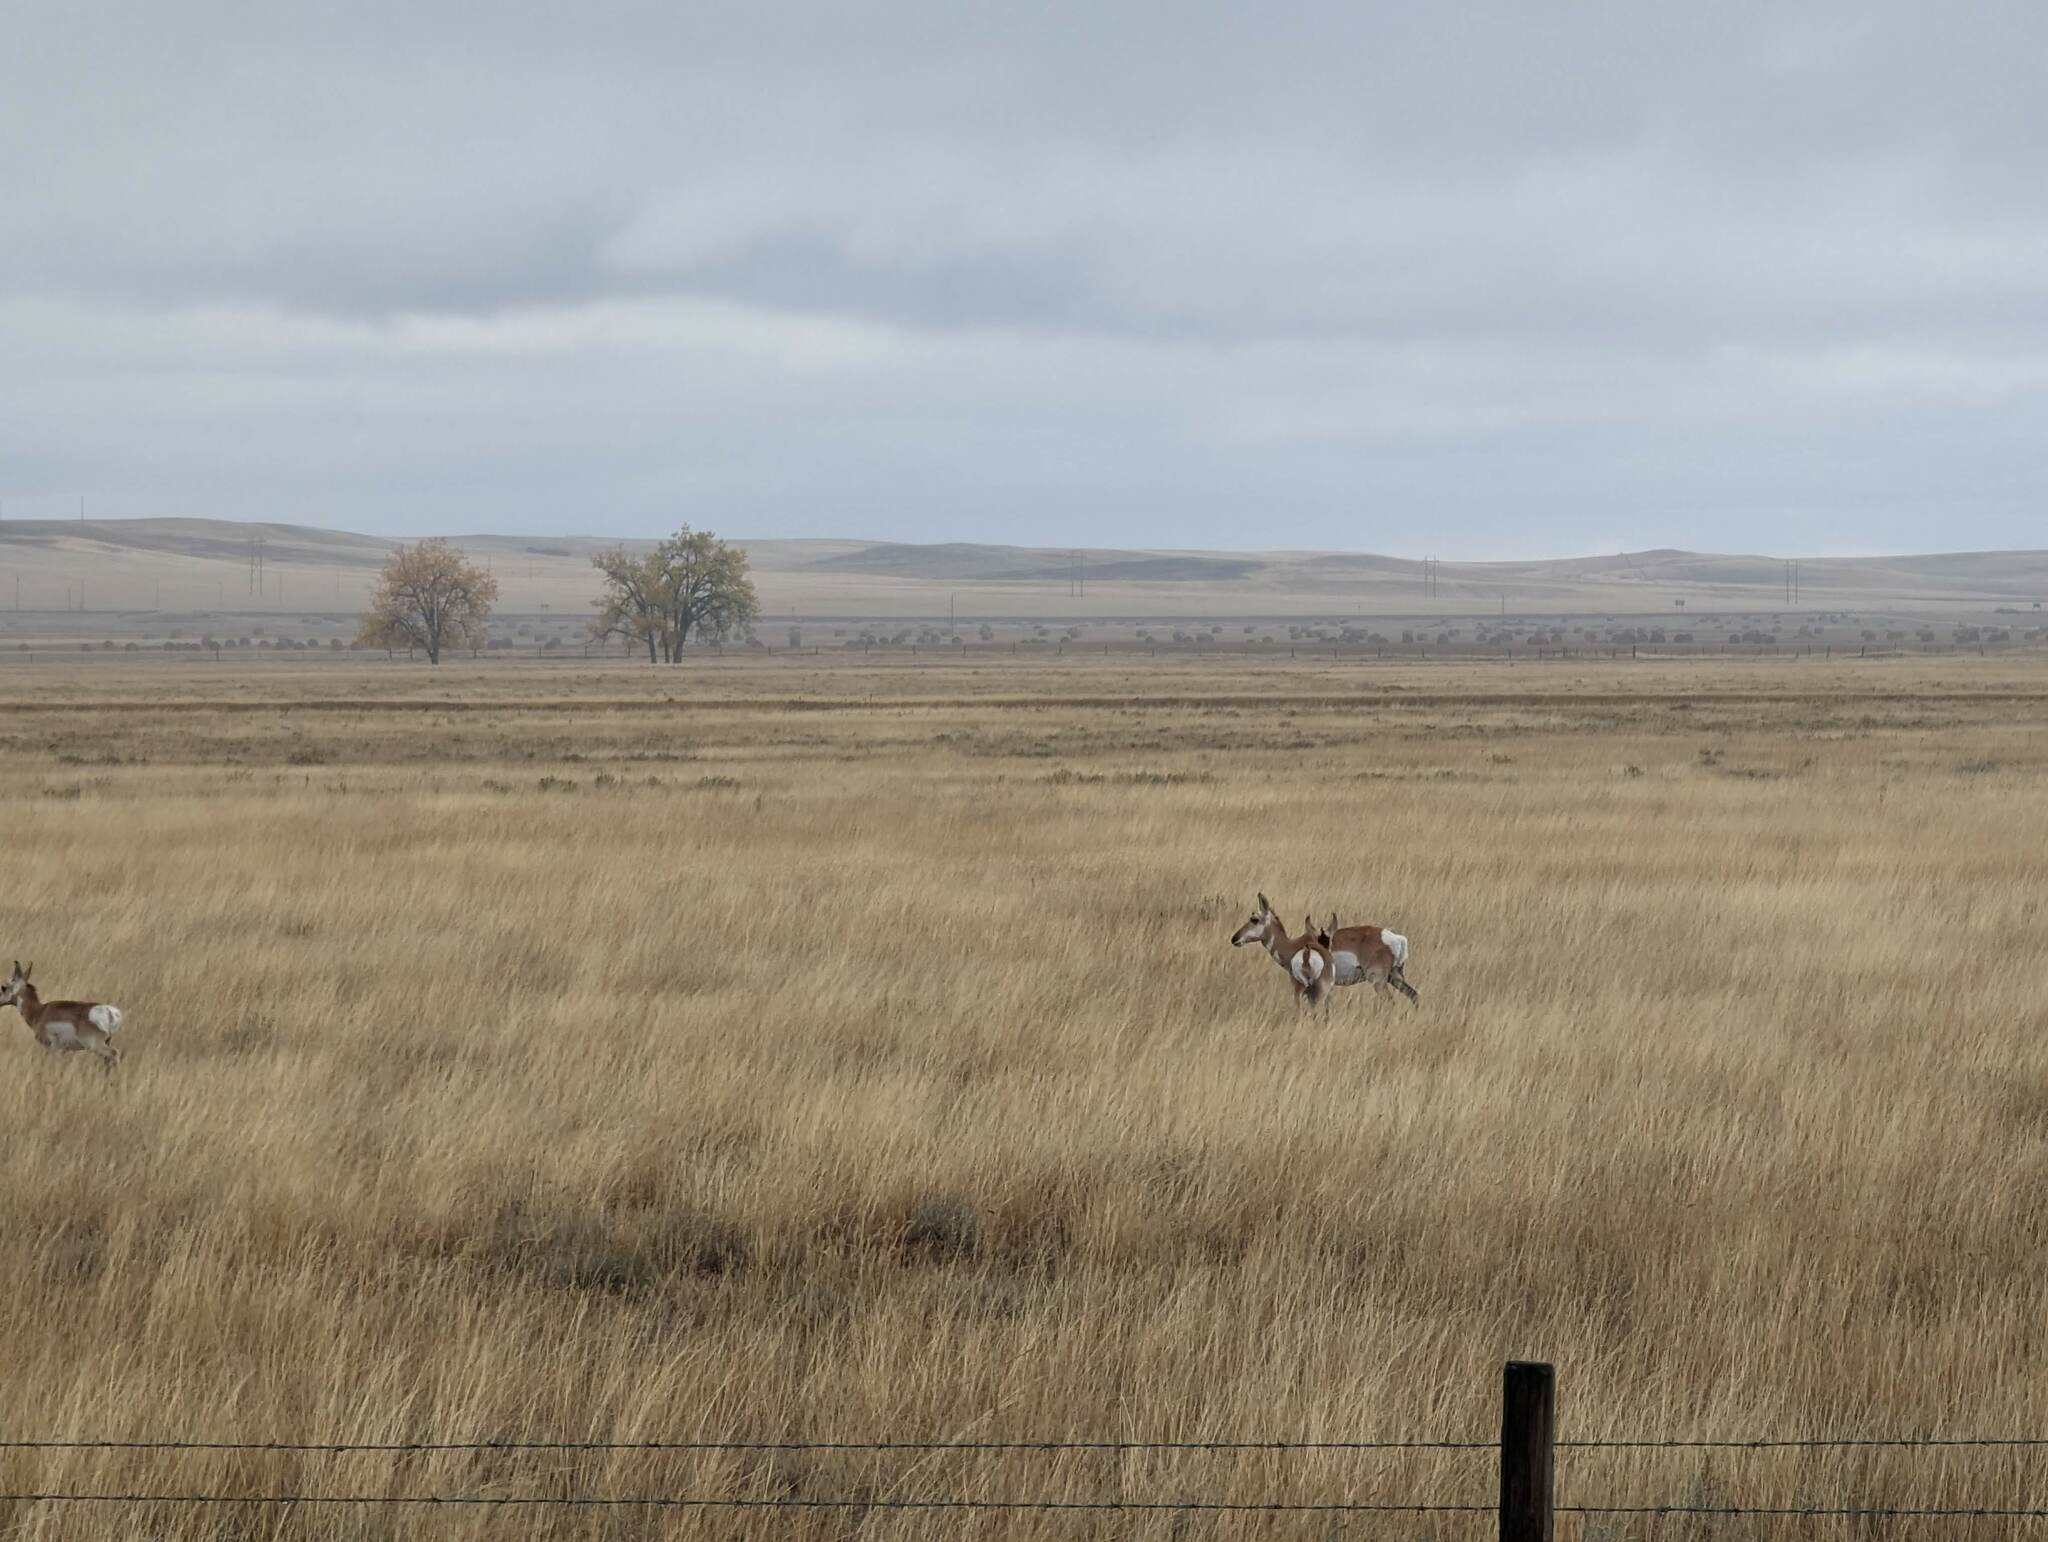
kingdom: Animalia
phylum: Chordata
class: Mammalia
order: Artiodactyla
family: Antilocapridae
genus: Antilocapra
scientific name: Antilocapra americana
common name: Pronghorn
